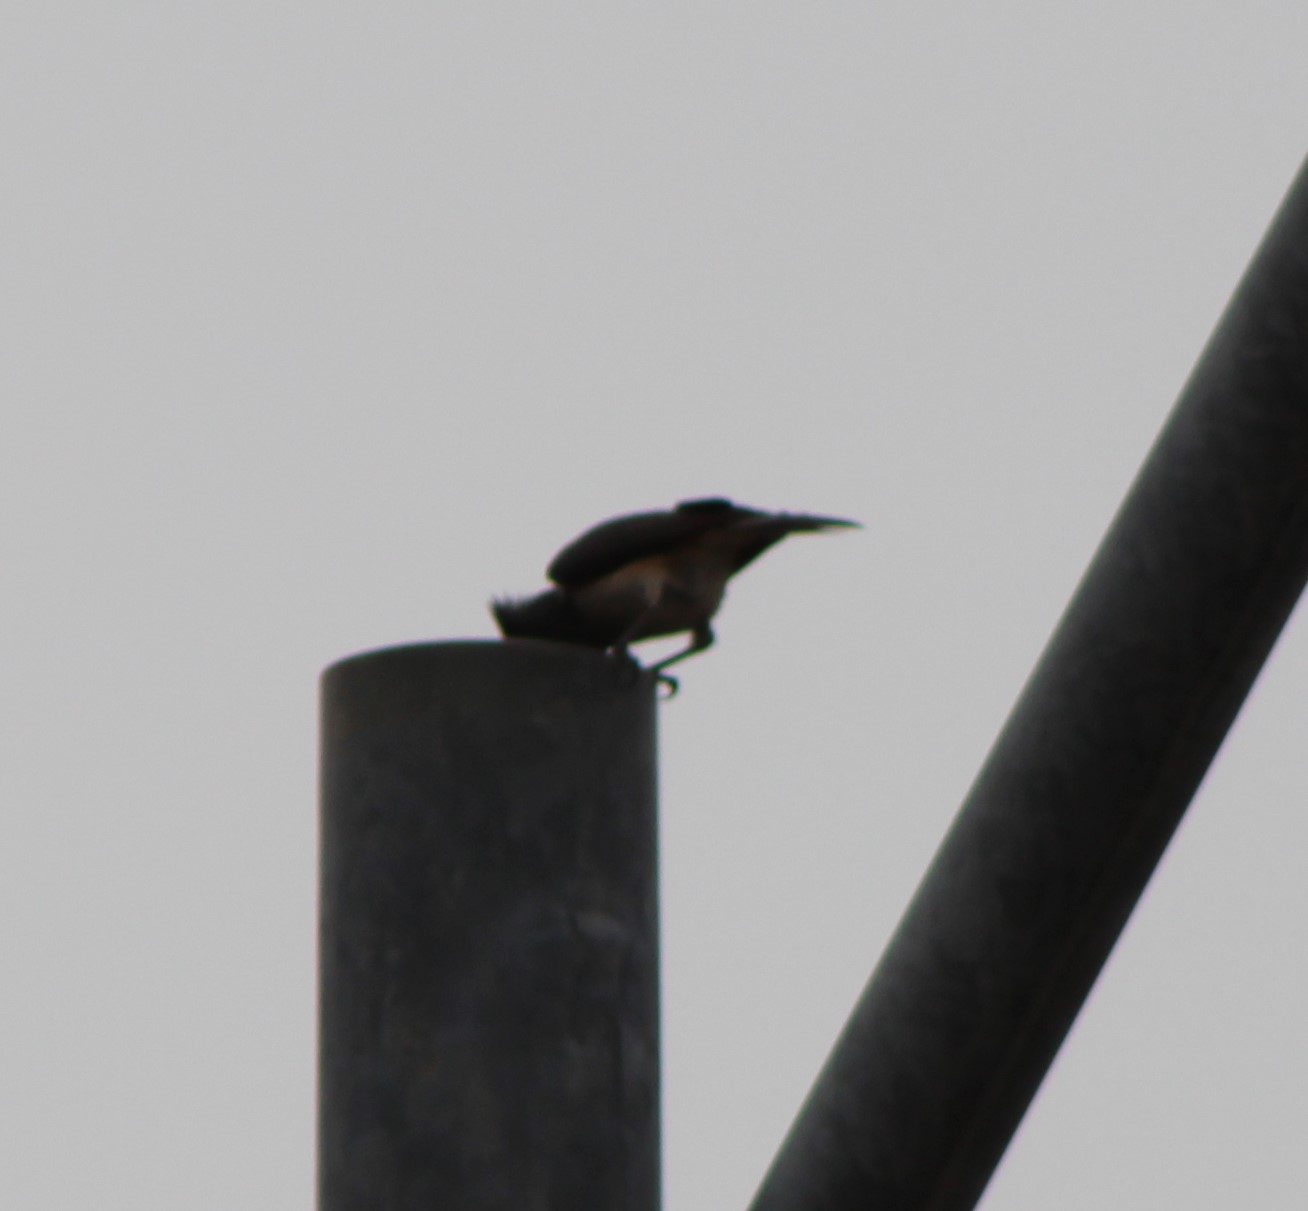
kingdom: Animalia
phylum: Chordata
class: Aves
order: Passeriformes
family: Paridae
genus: Baeolophus
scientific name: Baeolophus bicolor
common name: Tufted titmouse
